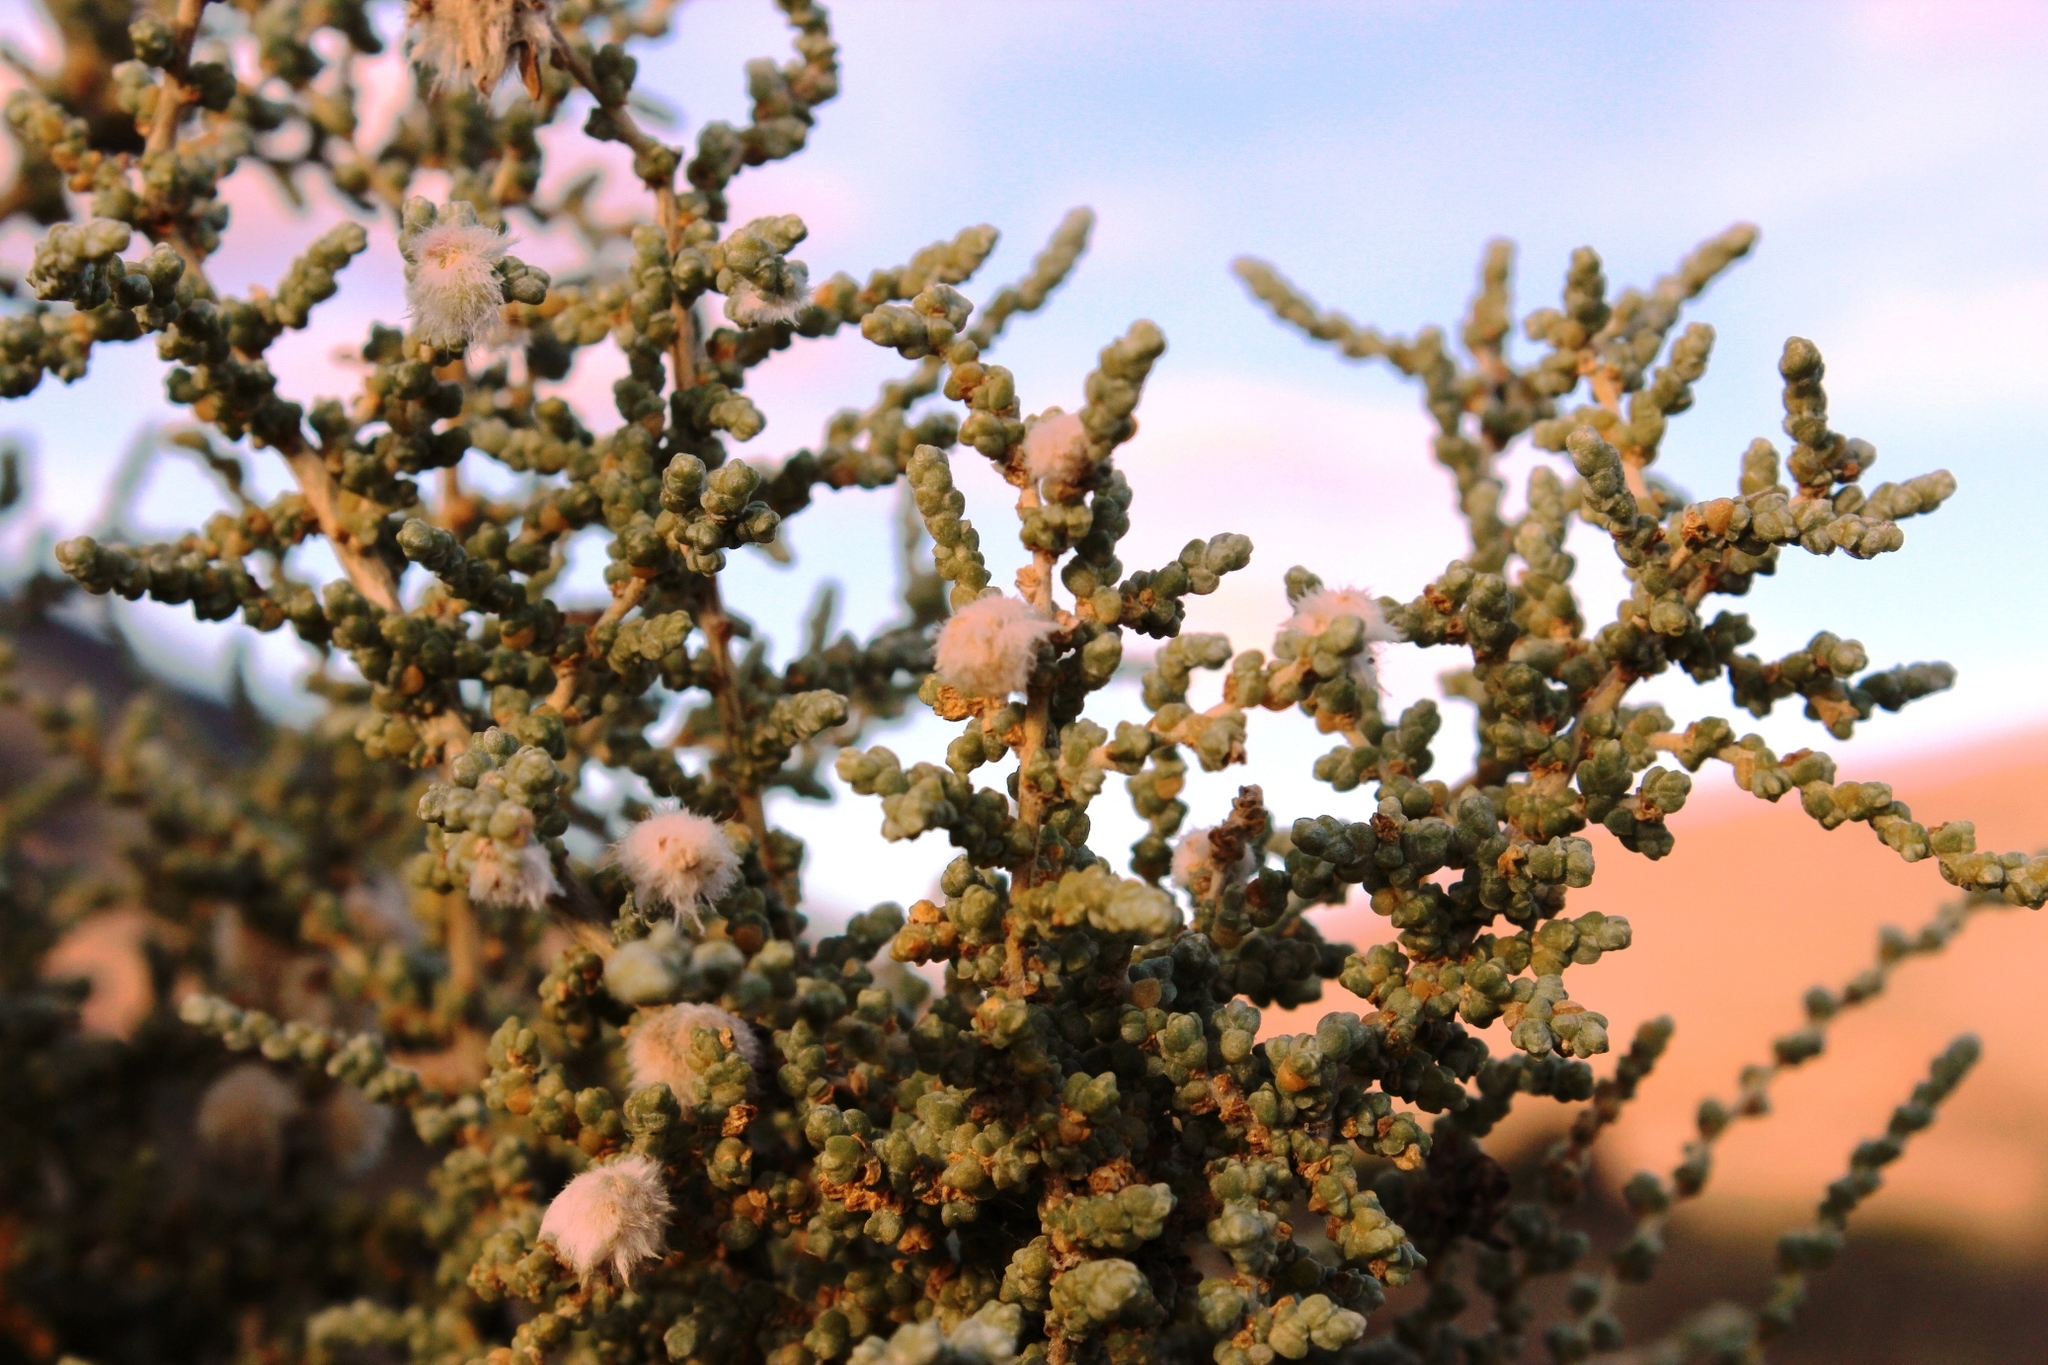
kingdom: Plantae
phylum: Tracheophyta
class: Magnoliopsida
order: Caryophyllales
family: Amaranthaceae
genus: Caroxylon
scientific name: Caroxylon aphyllum
